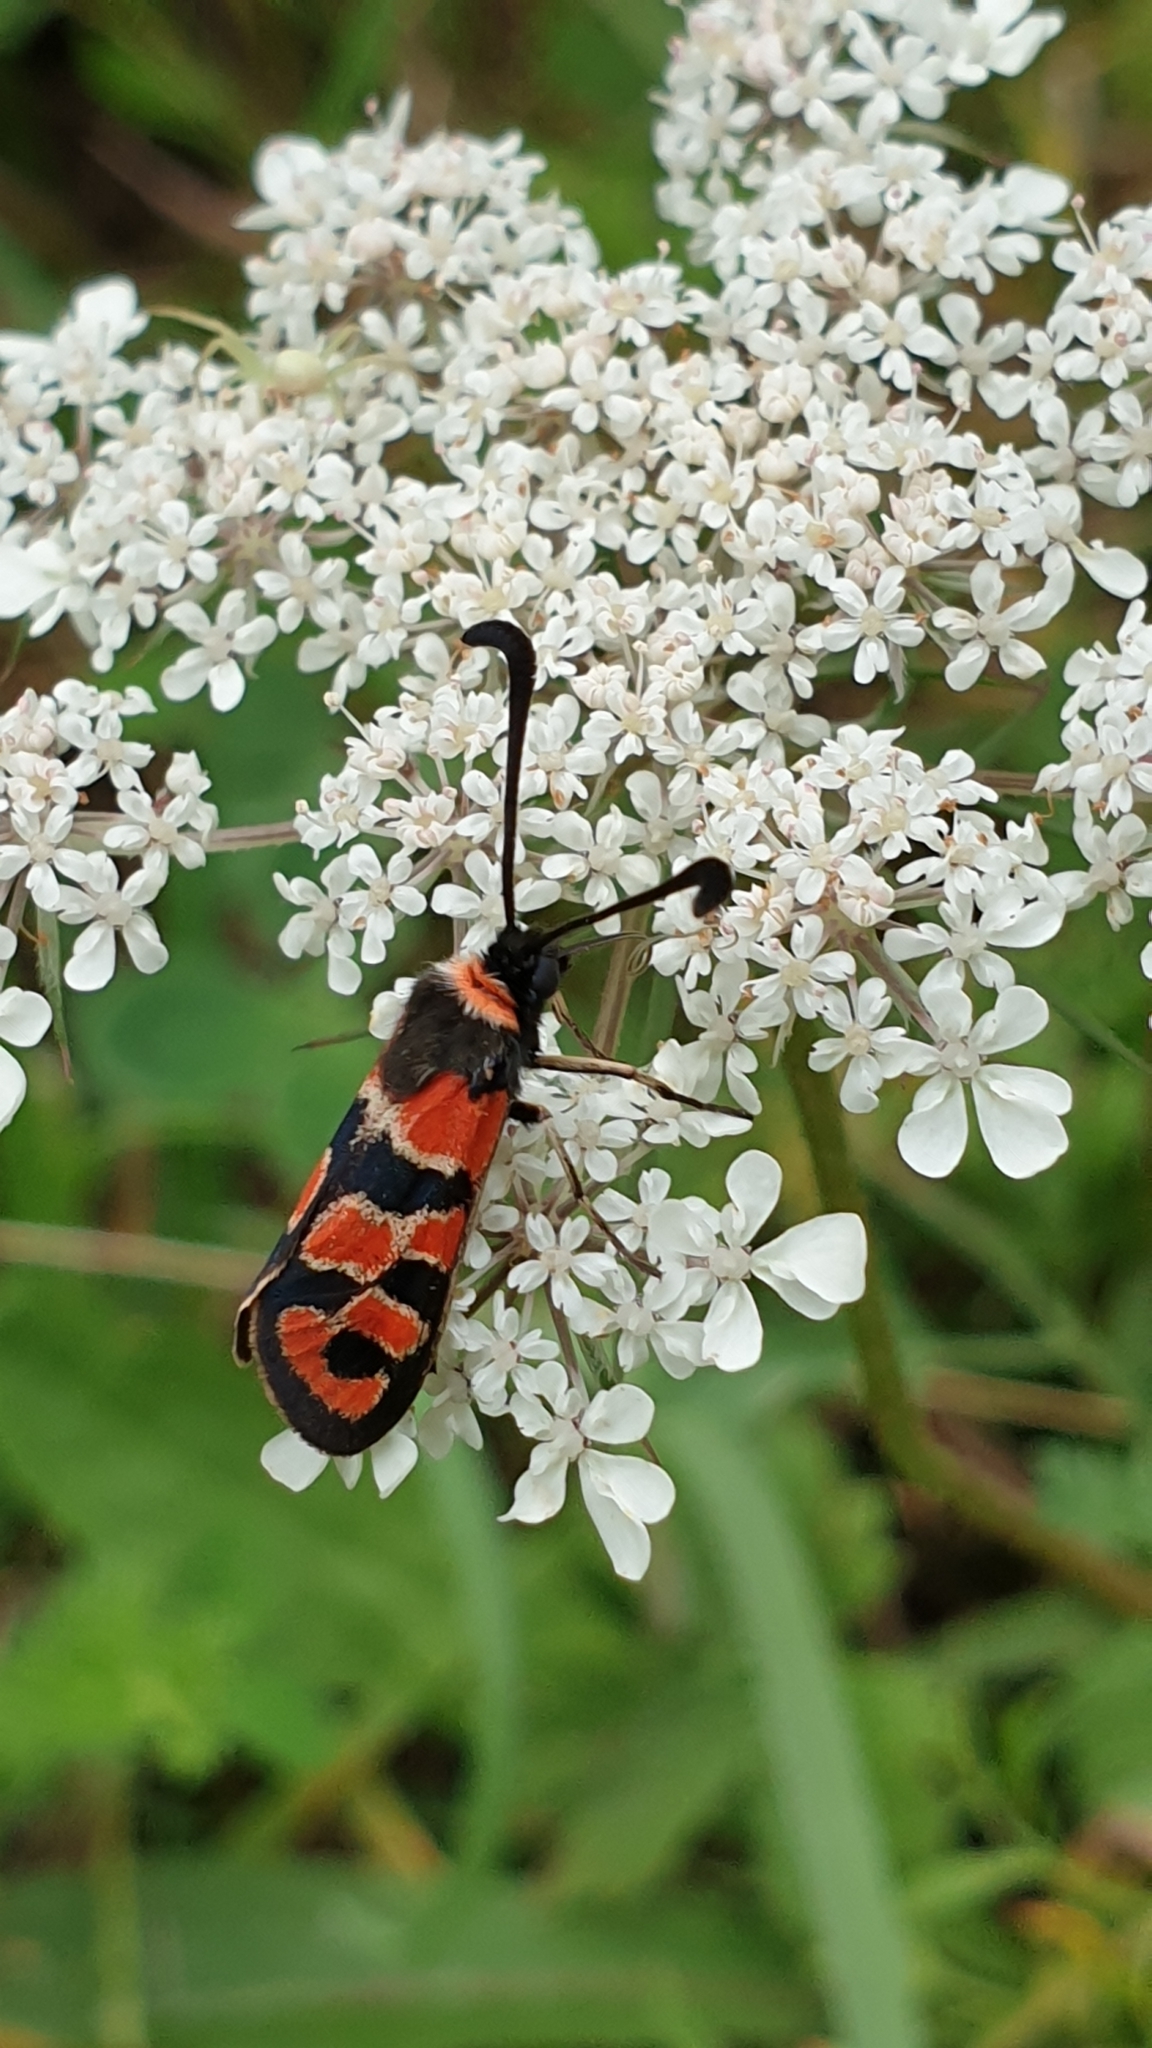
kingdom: Animalia
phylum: Arthropoda
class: Insecta
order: Lepidoptera
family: Zygaenidae
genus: Zygaena
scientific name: Zygaena fausta
